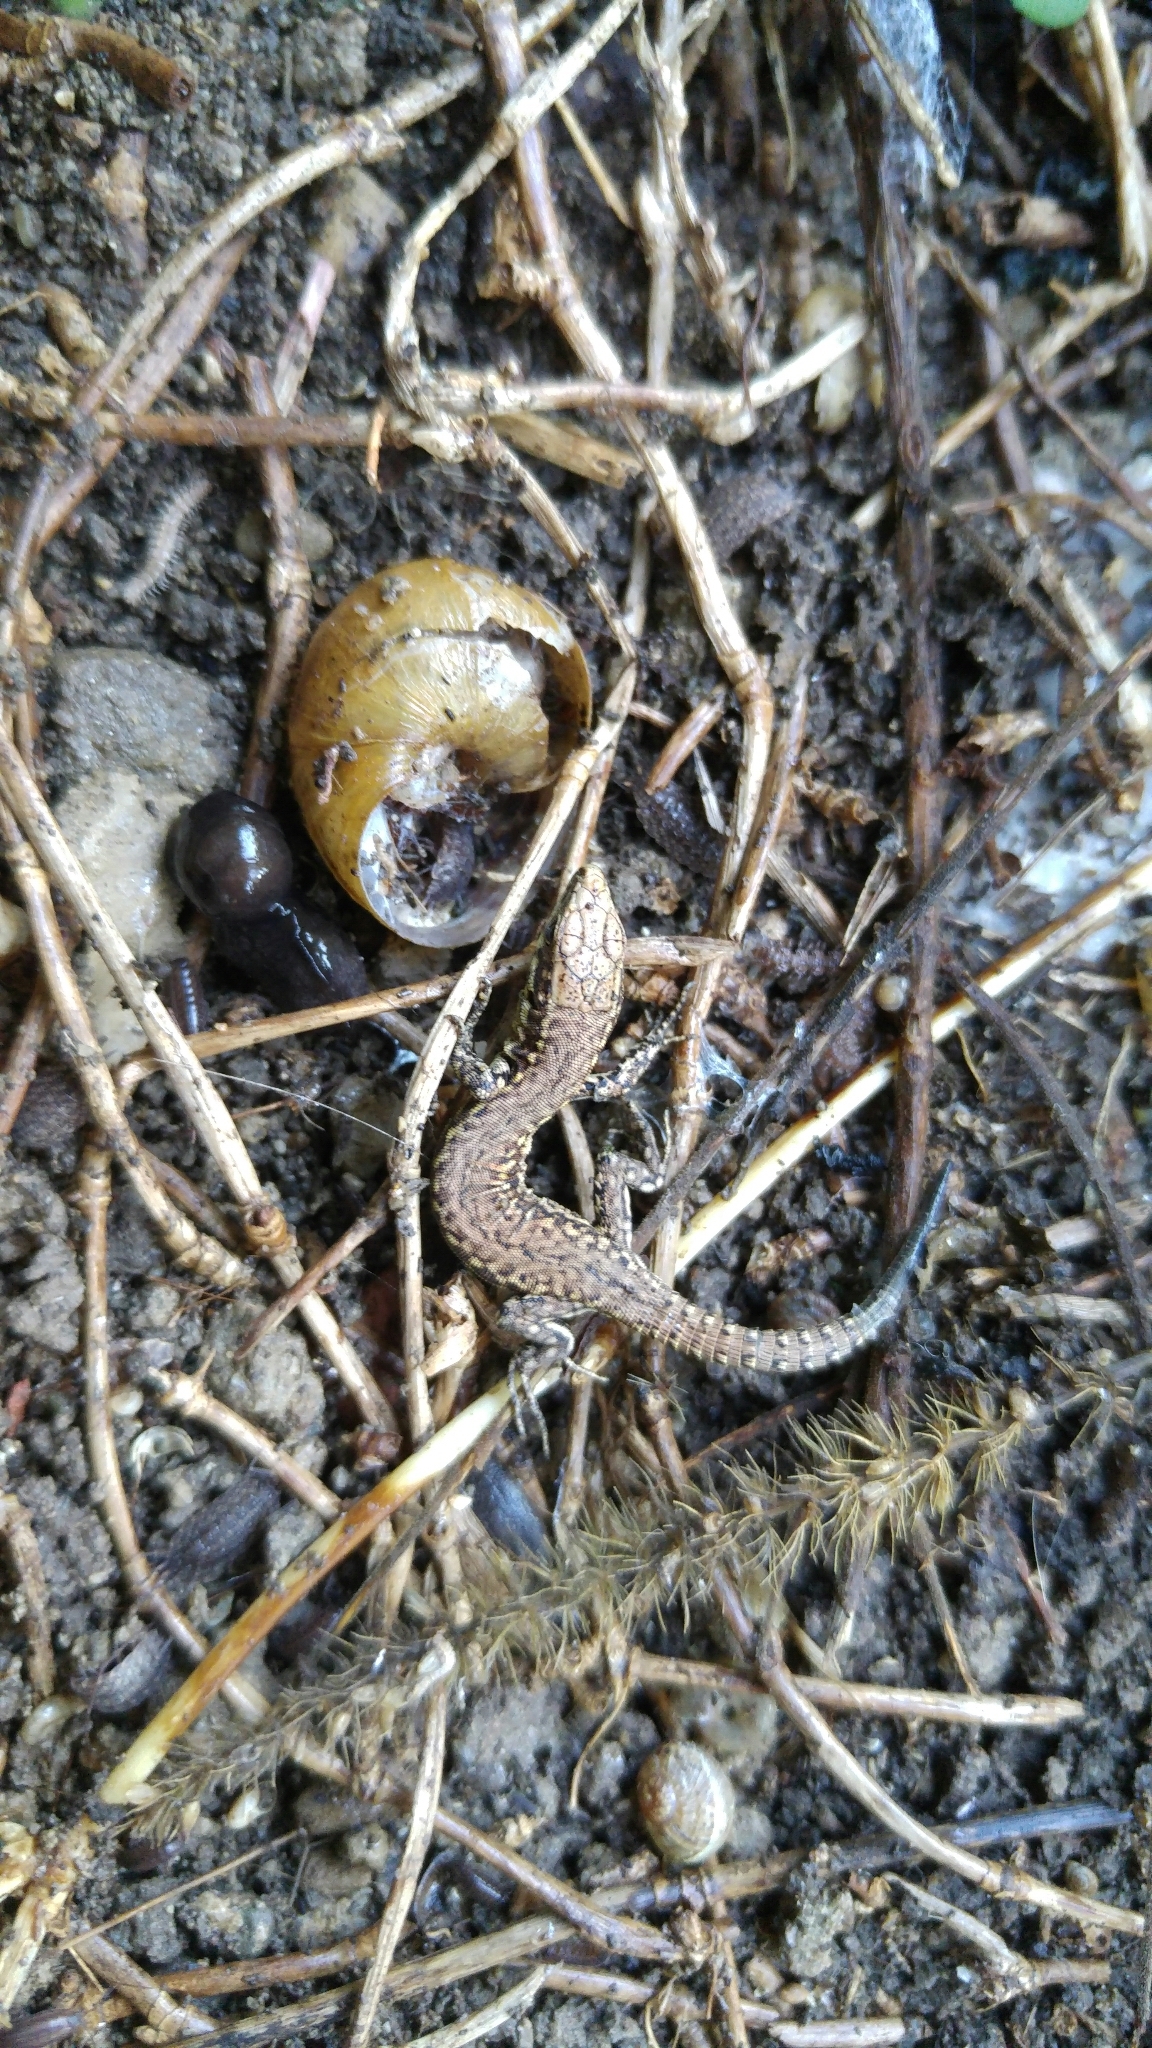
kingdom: Animalia
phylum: Chordata
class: Squamata
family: Lacertidae
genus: Podarcis
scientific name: Podarcis muralis
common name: Common wall lizard
